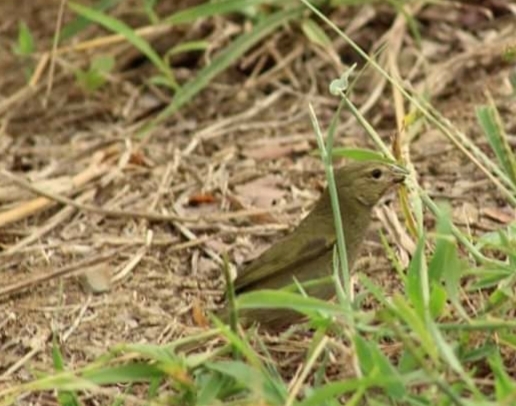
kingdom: Animalia
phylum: Chordata
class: Aves
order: Passeriformes
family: Thraupidae
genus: Tiaris
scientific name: Tiaris olivaceus
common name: Yellow-faced grassquit
